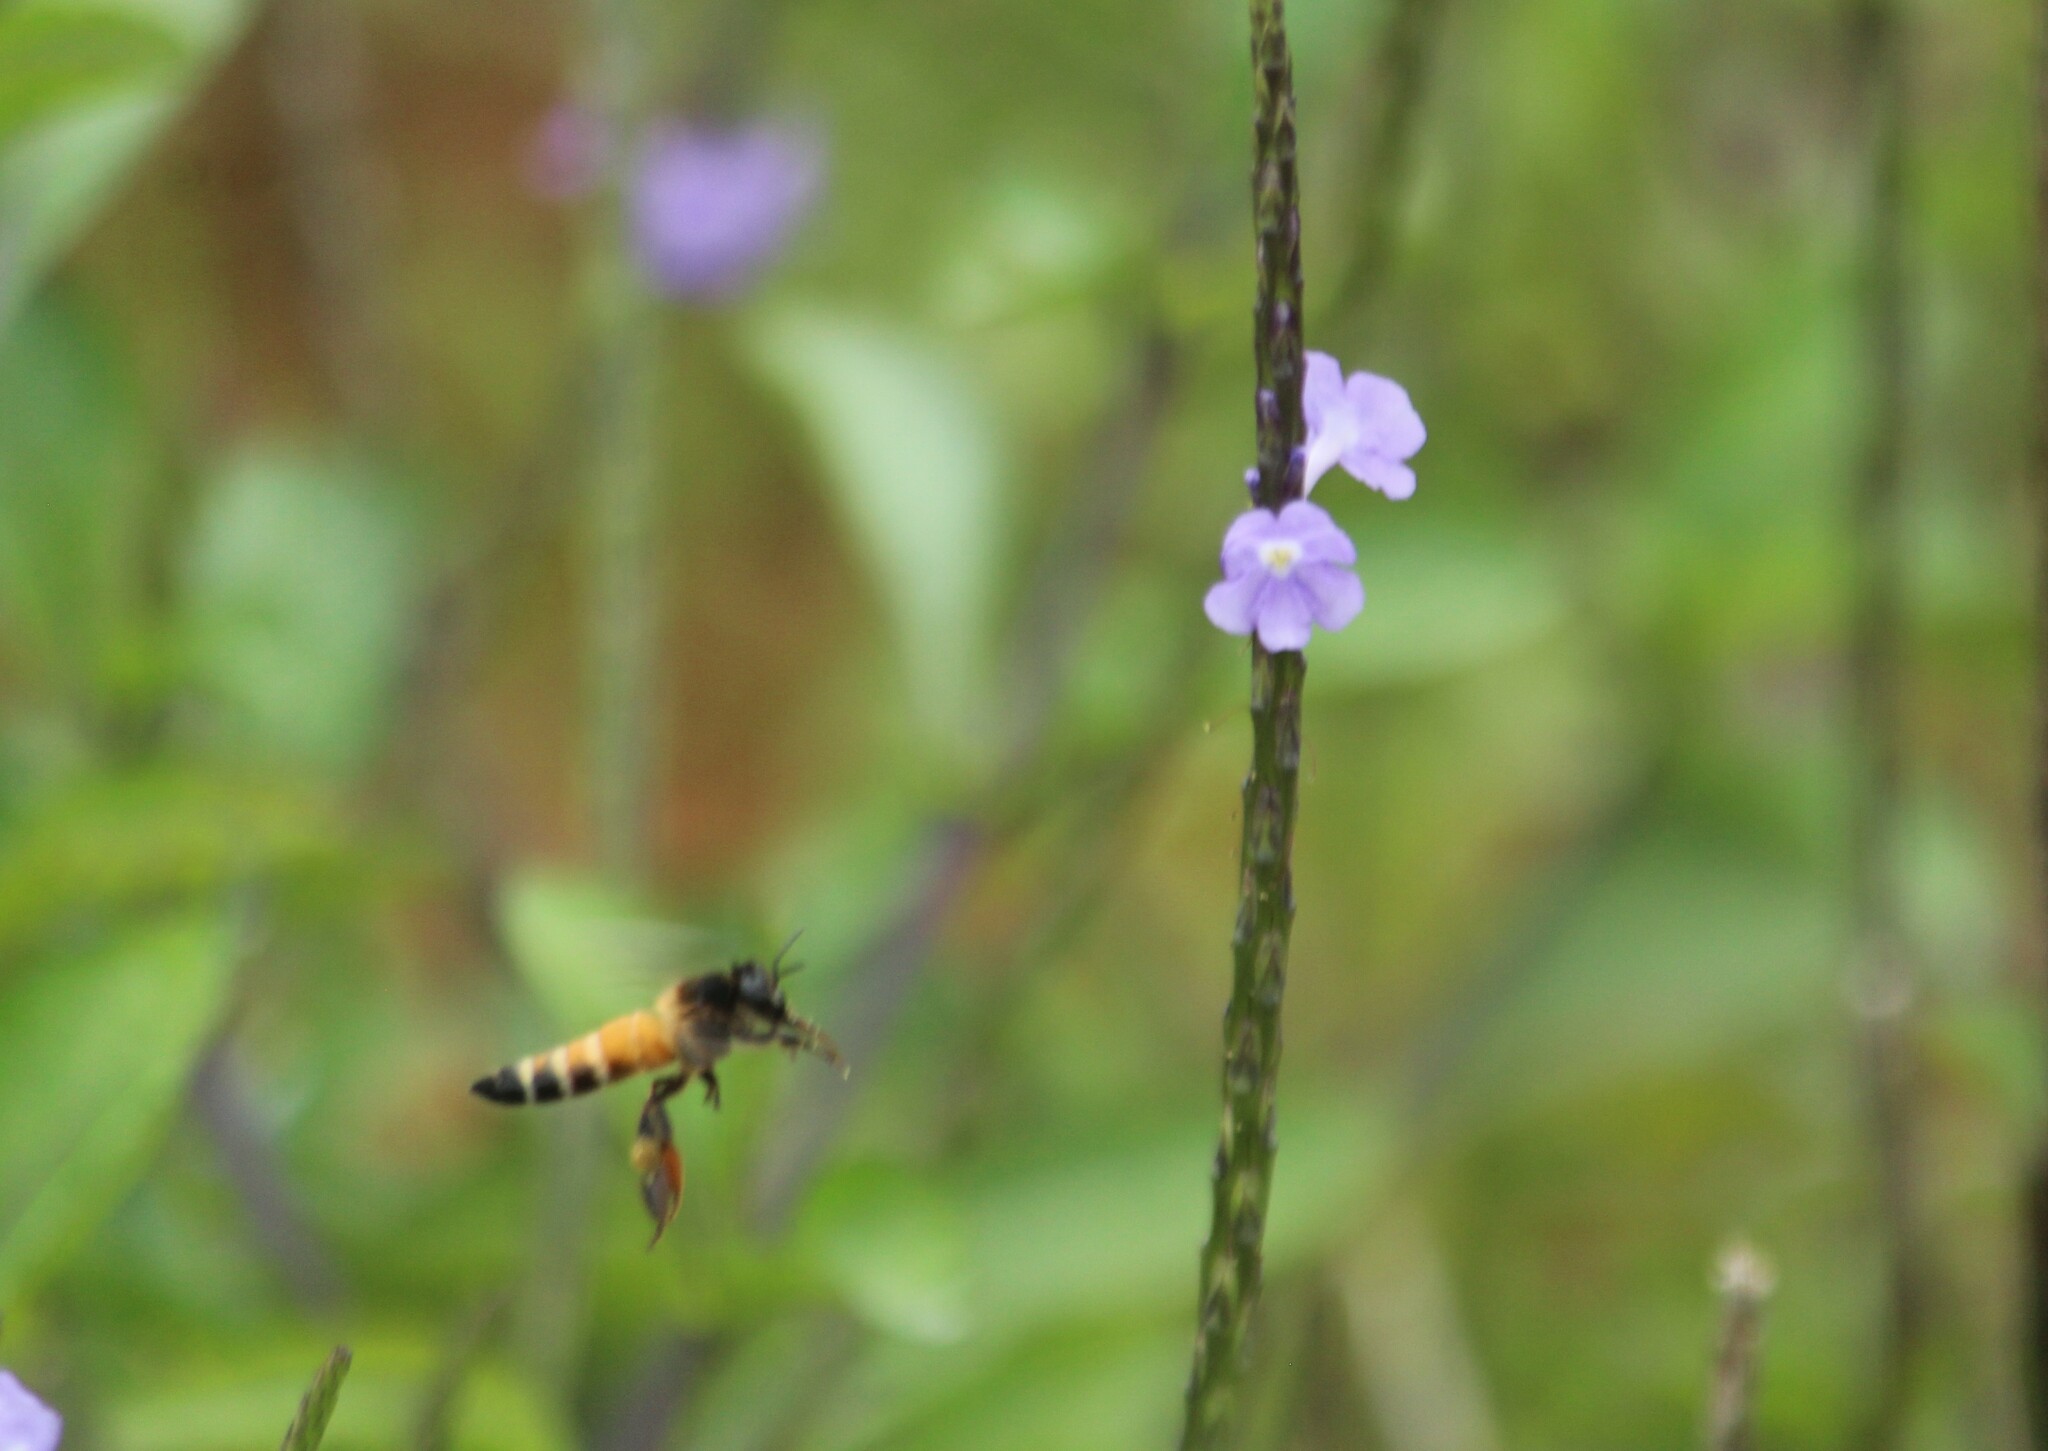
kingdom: Animalia
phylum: Arthropoda
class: Insecta
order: Hymenoptera
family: Apidae
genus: Apis
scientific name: Apis dorsata
